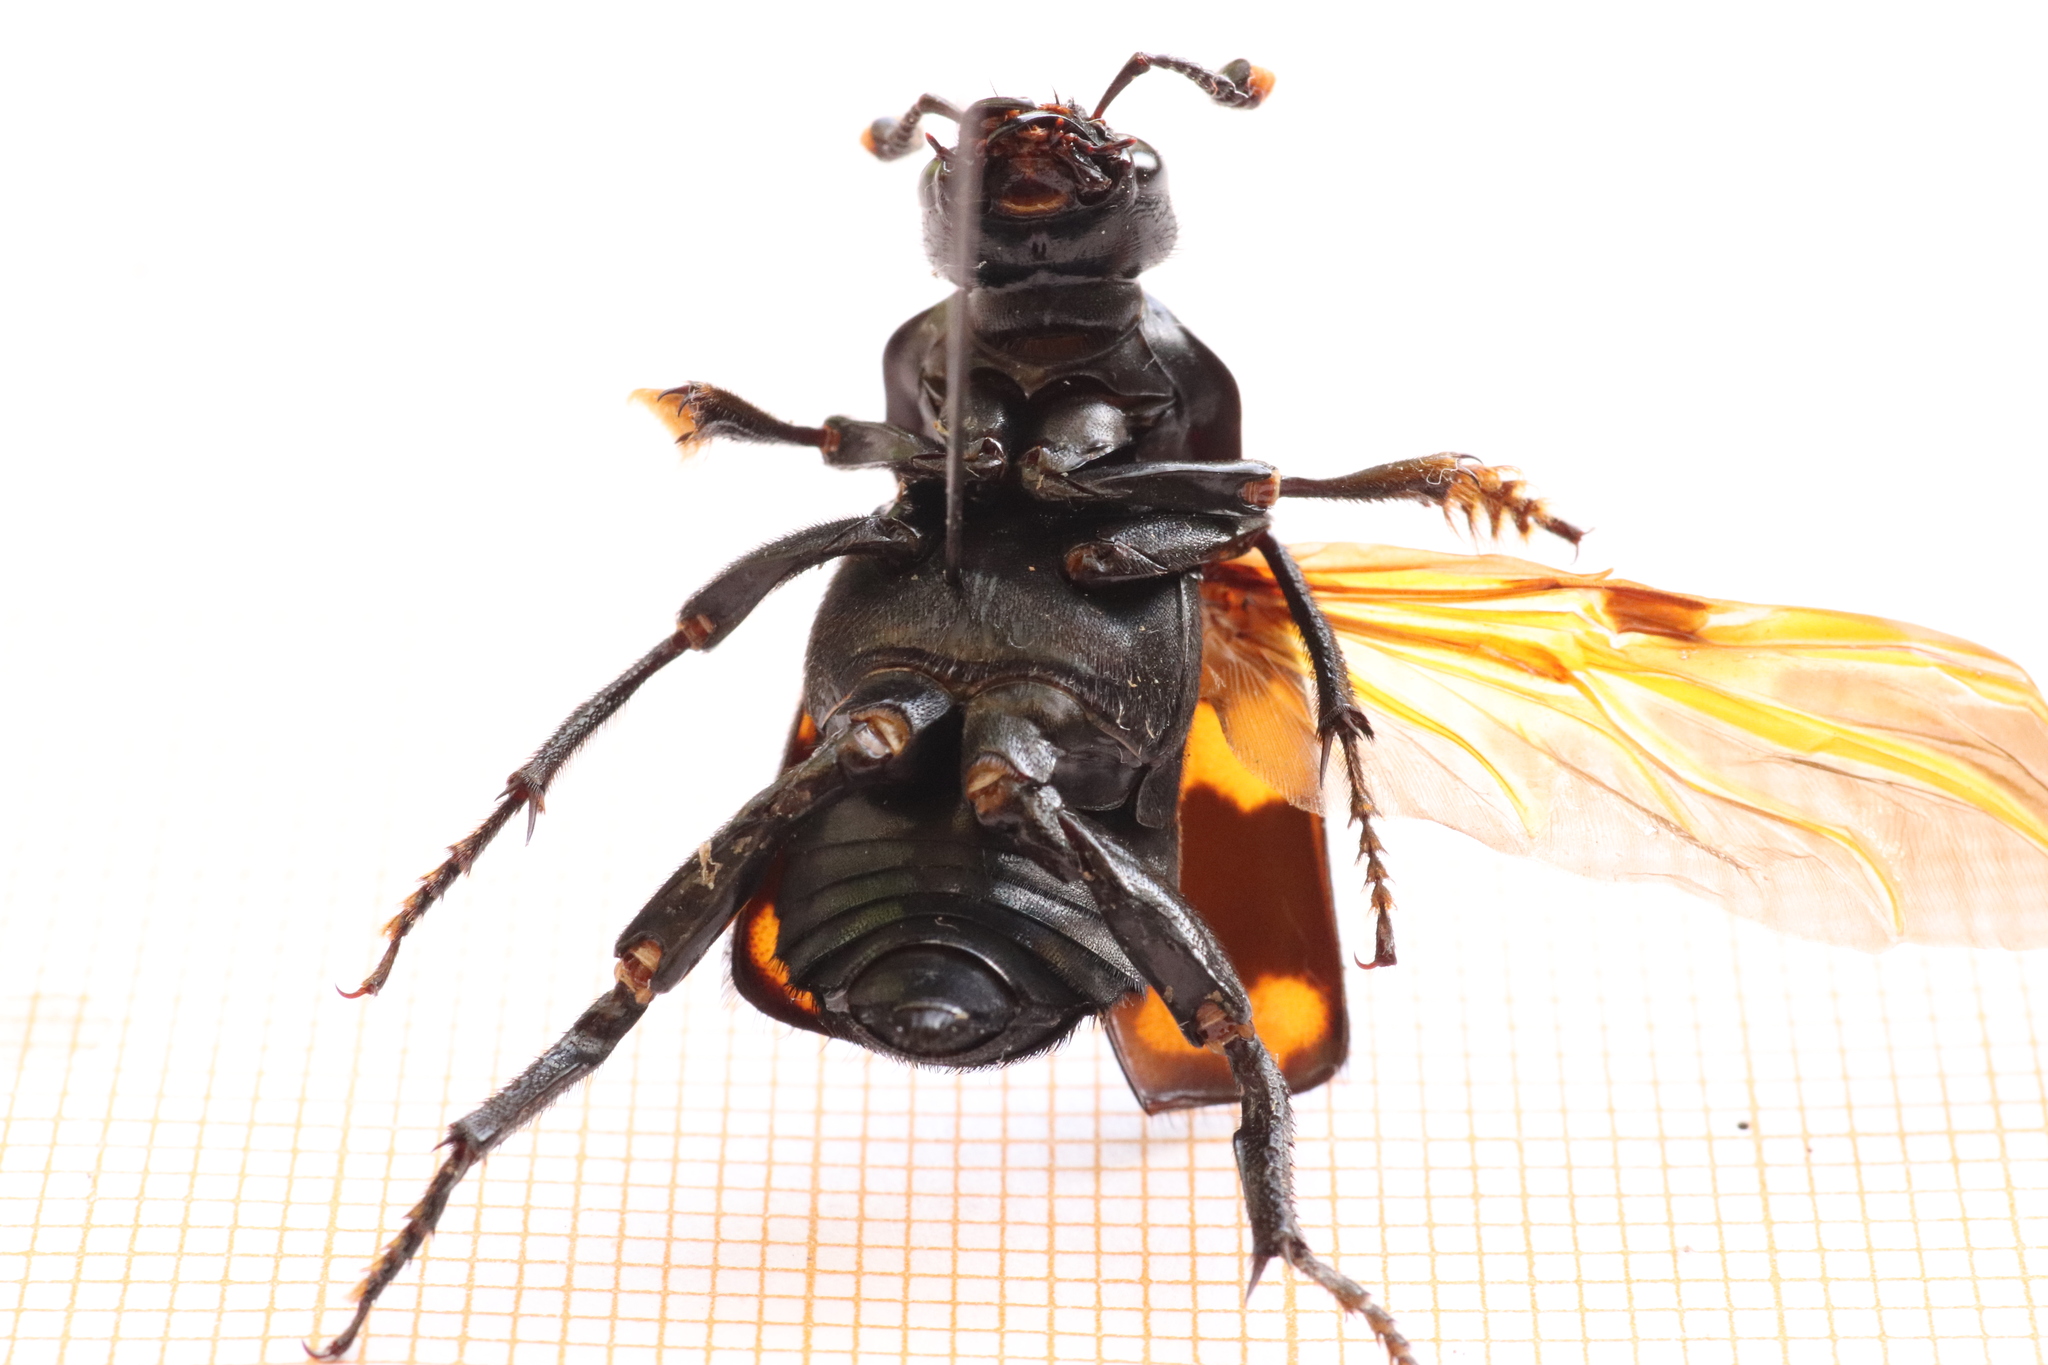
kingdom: Animalia
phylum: Arthropoda
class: Insecta
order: Coleoptera
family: Staphylinidae
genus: Nicrophorus
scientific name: Nicrophorus distinctus
